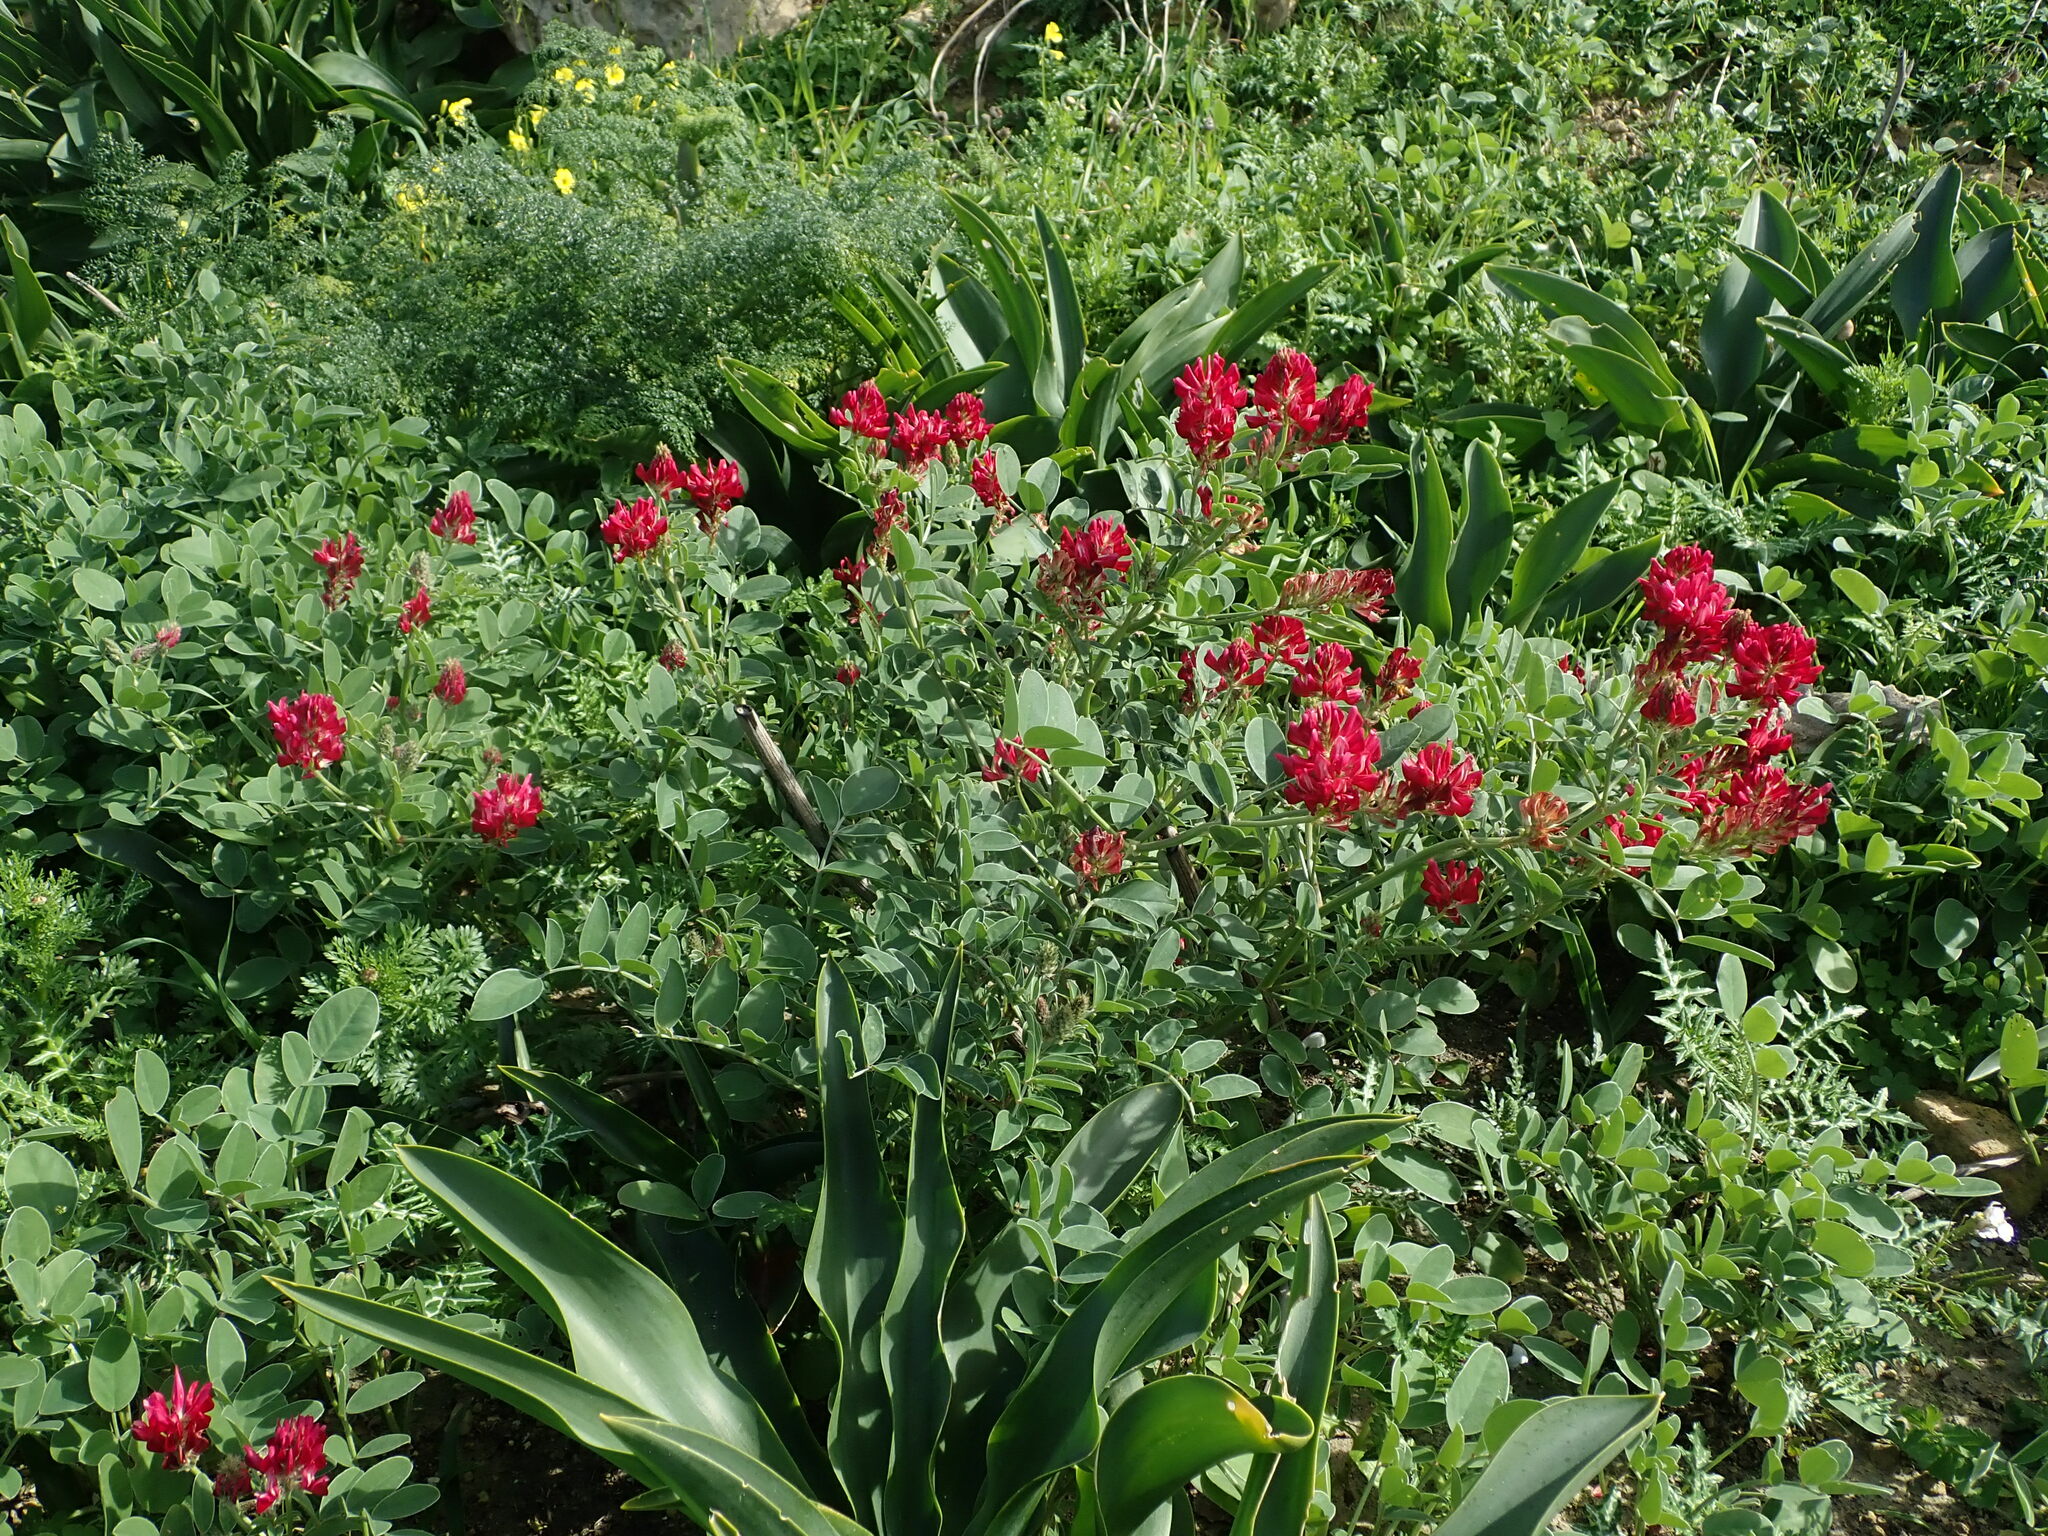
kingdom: Plantae
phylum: Tracheophyta
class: Magnoliopsida
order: Fabales
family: Fabaceae
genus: Sulla
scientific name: Sulla coronaria
